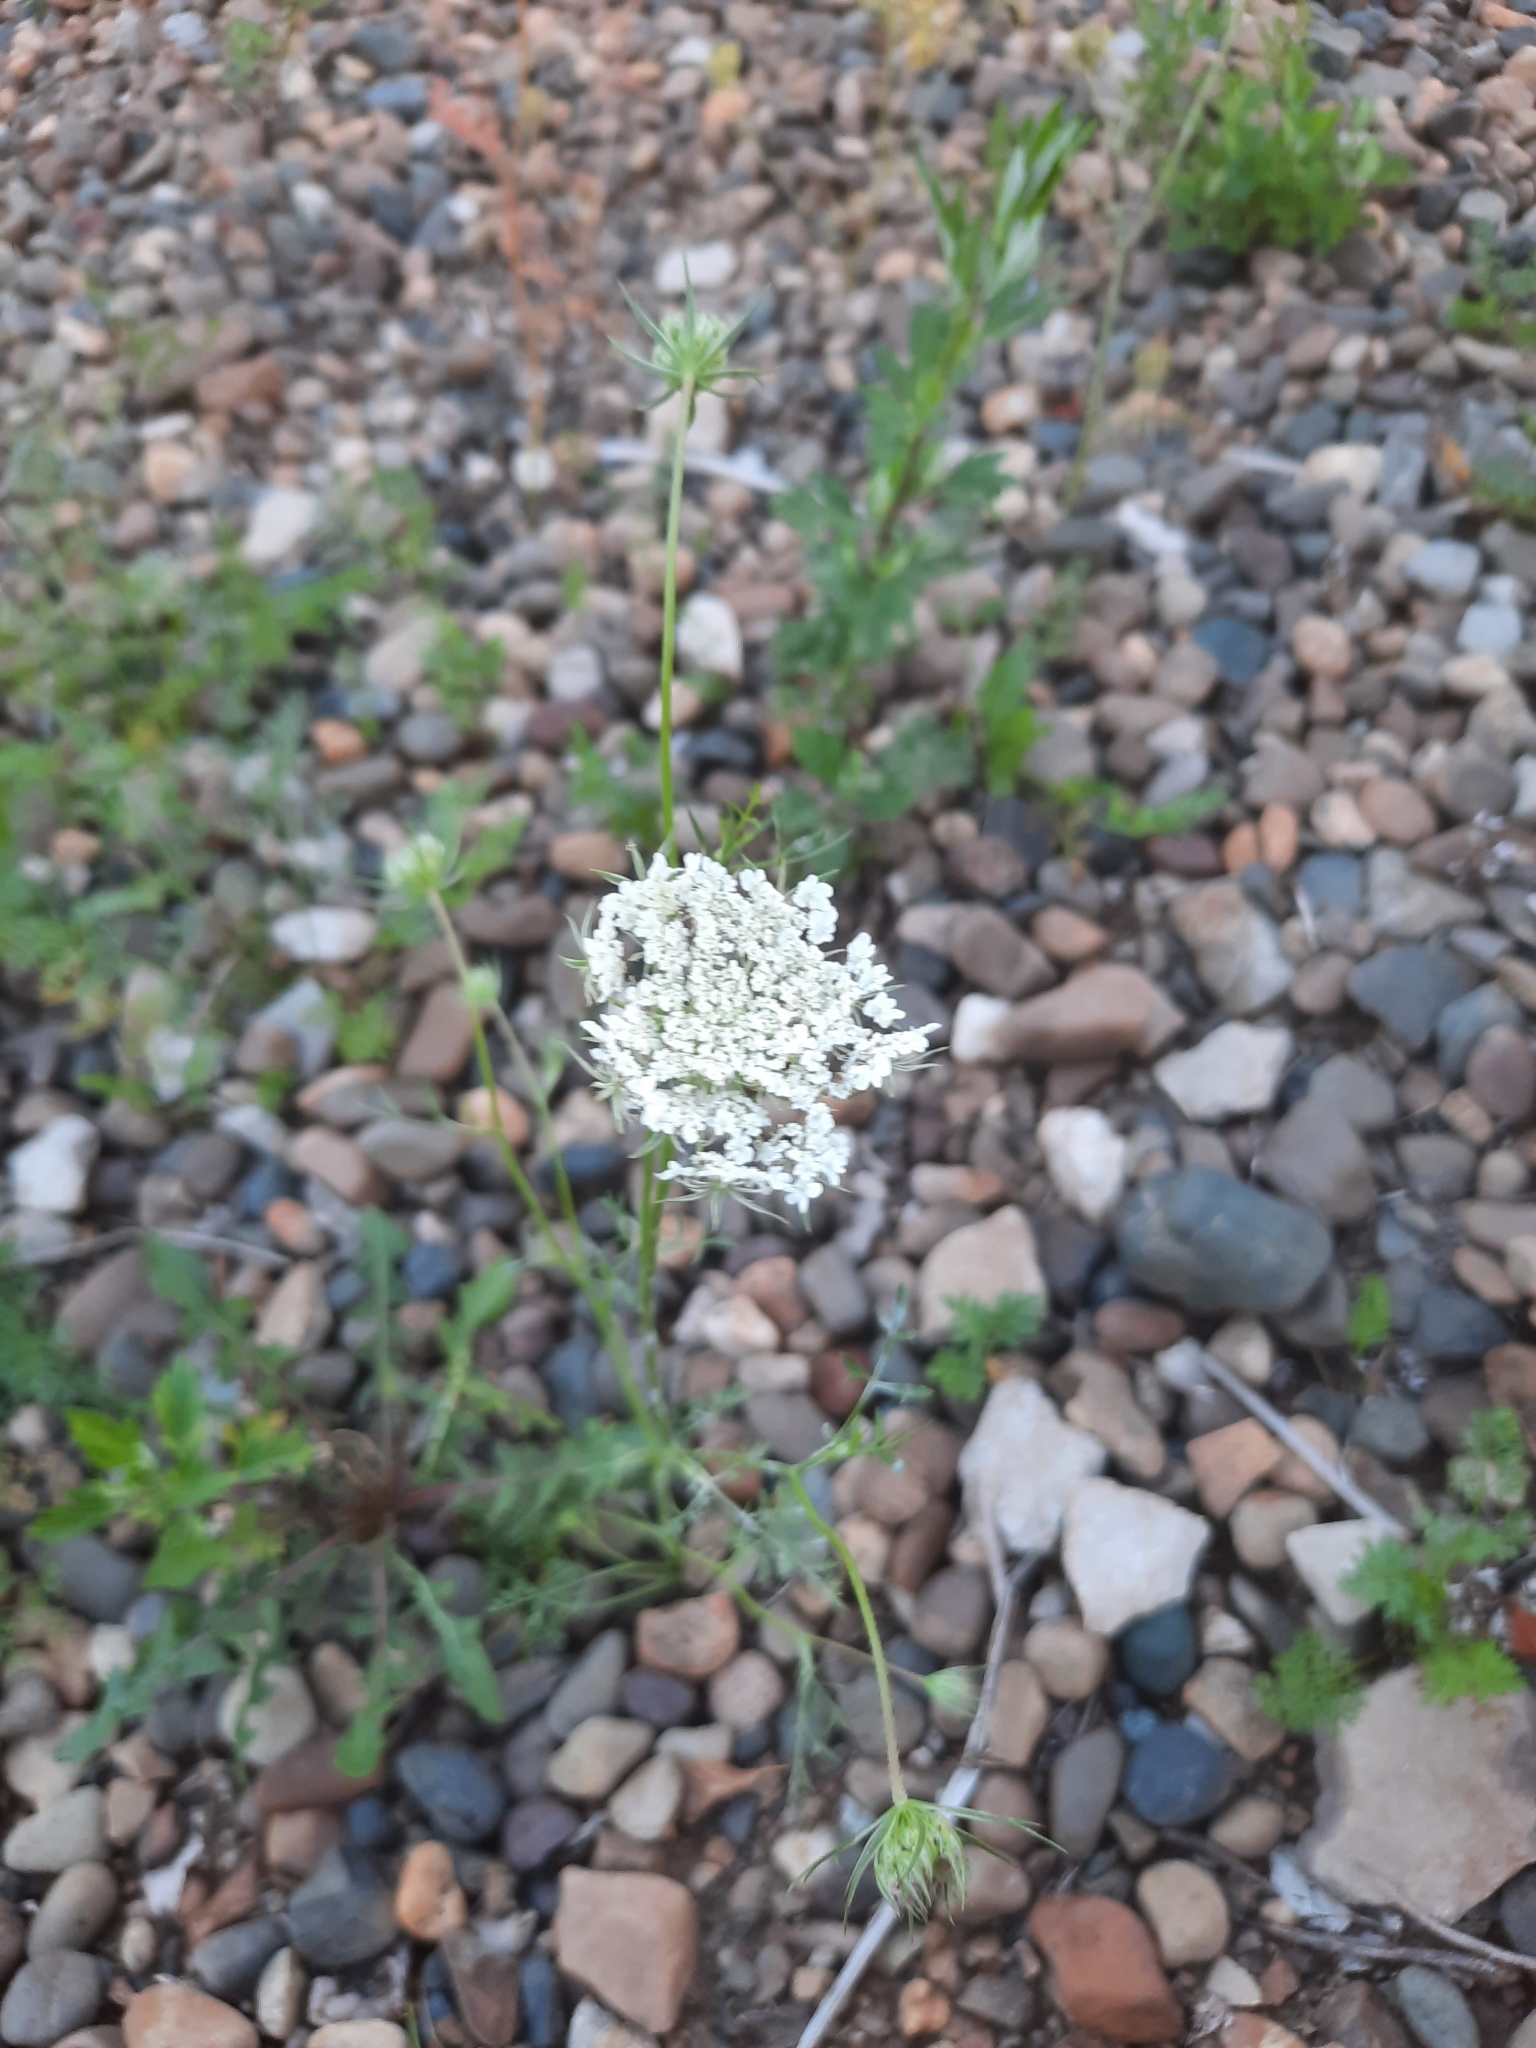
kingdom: Plantae
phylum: Tracheophyta
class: Magnoliopsida
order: Apiales
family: Apiaceae
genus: Daucus
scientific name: Daucus carota
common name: Wild carrot
